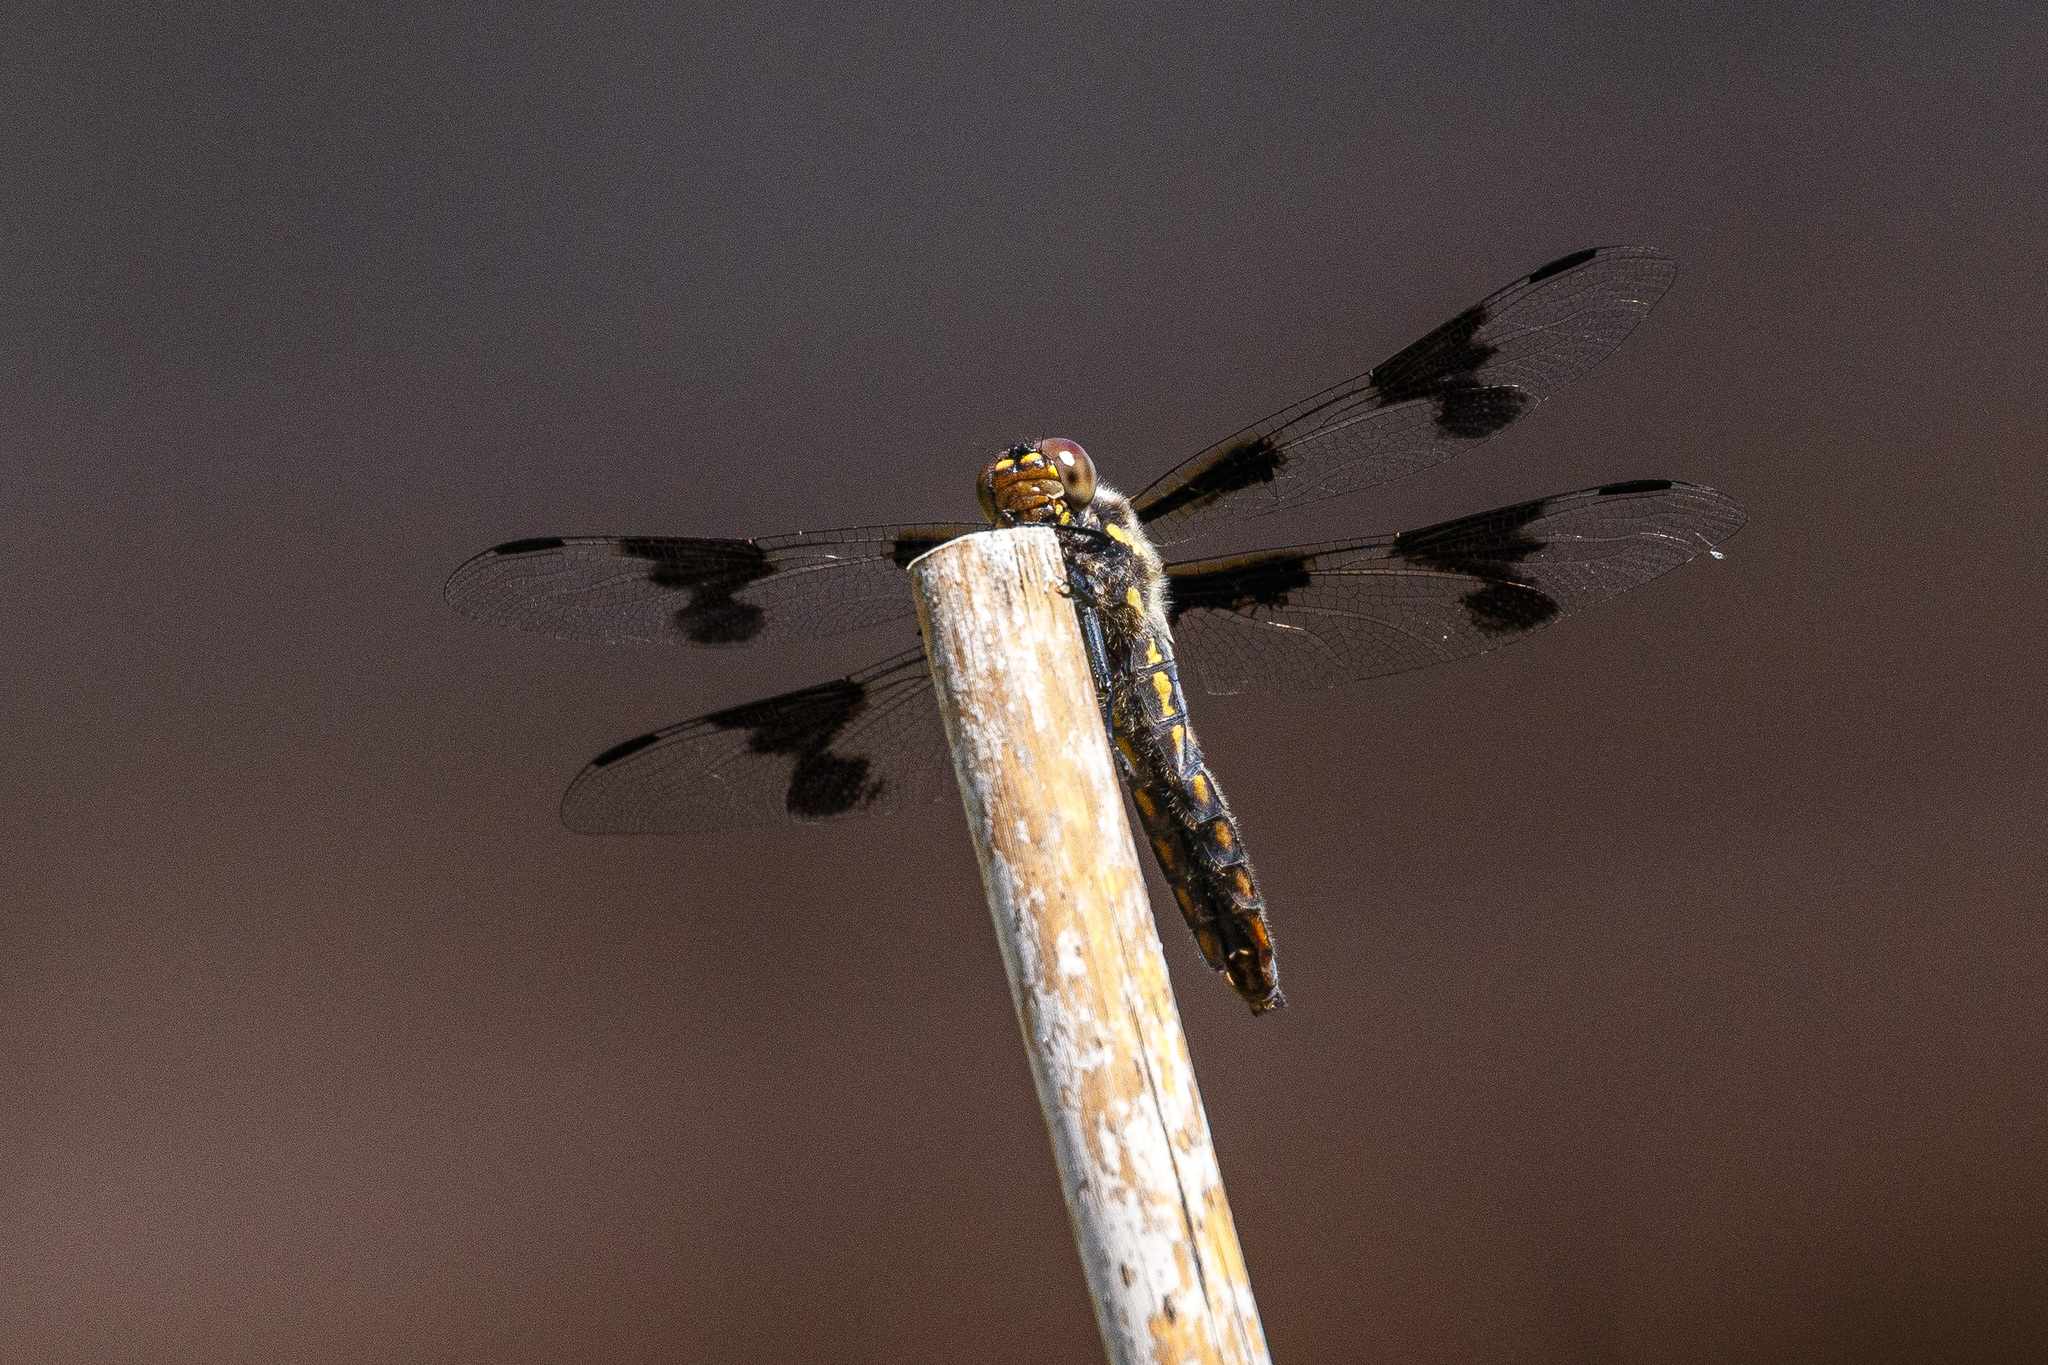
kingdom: Animalia
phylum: Arthropoda
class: Insecta
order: Odonata
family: Libellulidae
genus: Libellula
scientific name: Libellula forensis
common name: Eight-spotted skimmer
